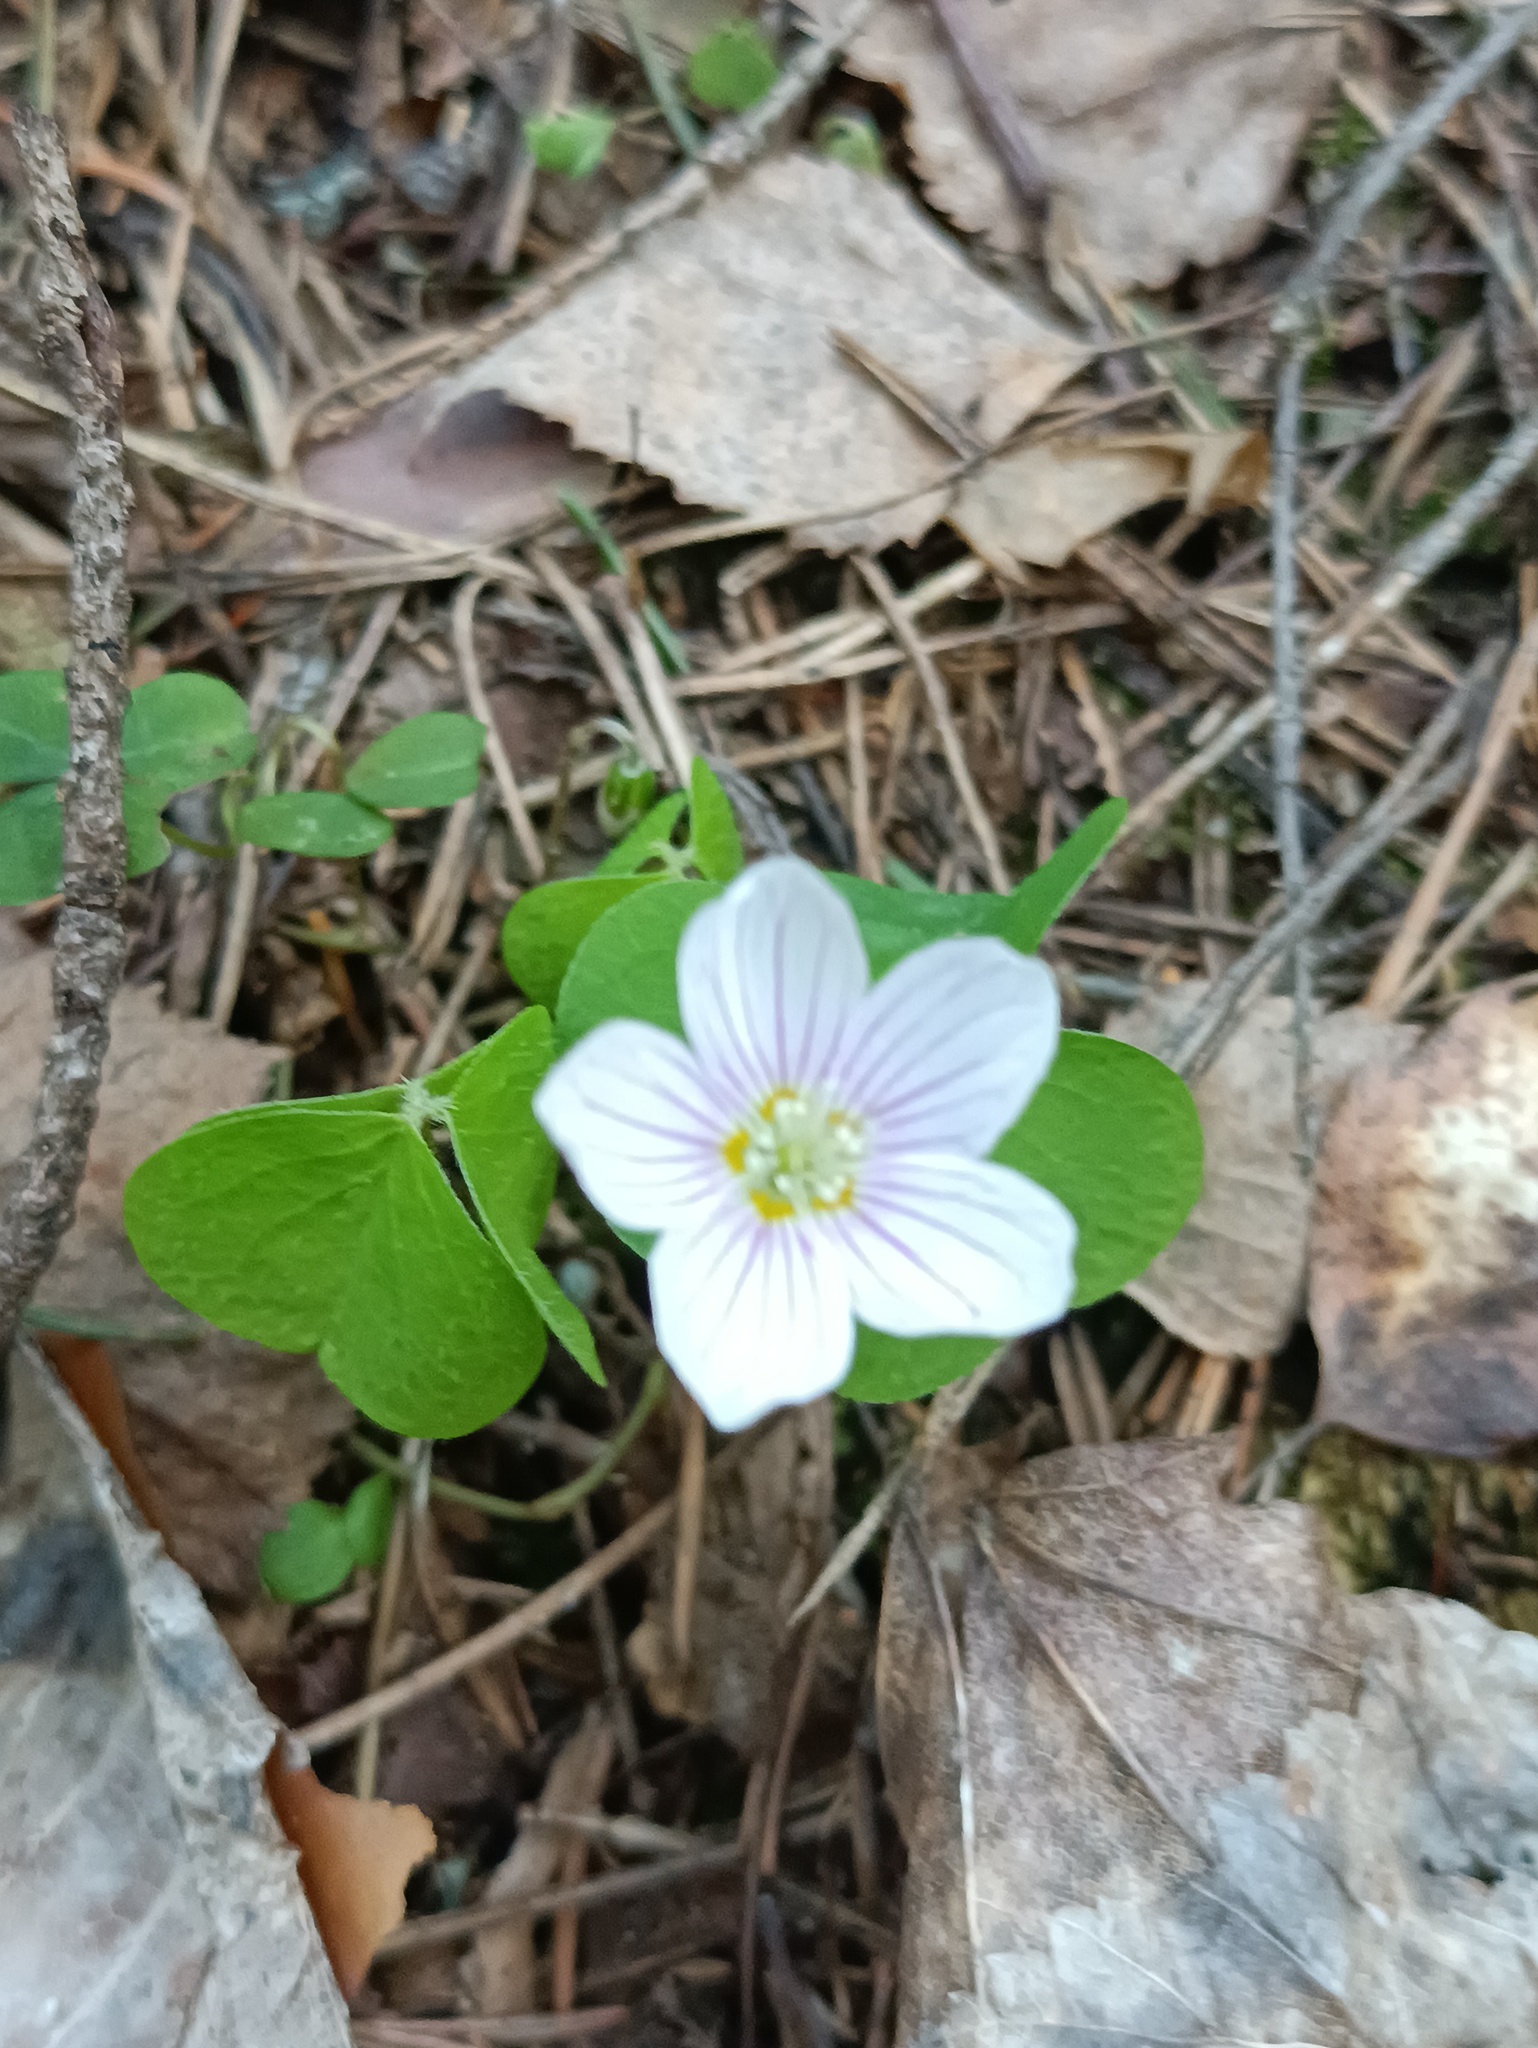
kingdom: Plantae
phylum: Tracheophyta
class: Magnoliopsida
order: Oxalidales
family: Oxalidaceae
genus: Oxalis
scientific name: Oxalis acetosella
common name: Wood-sorrel
